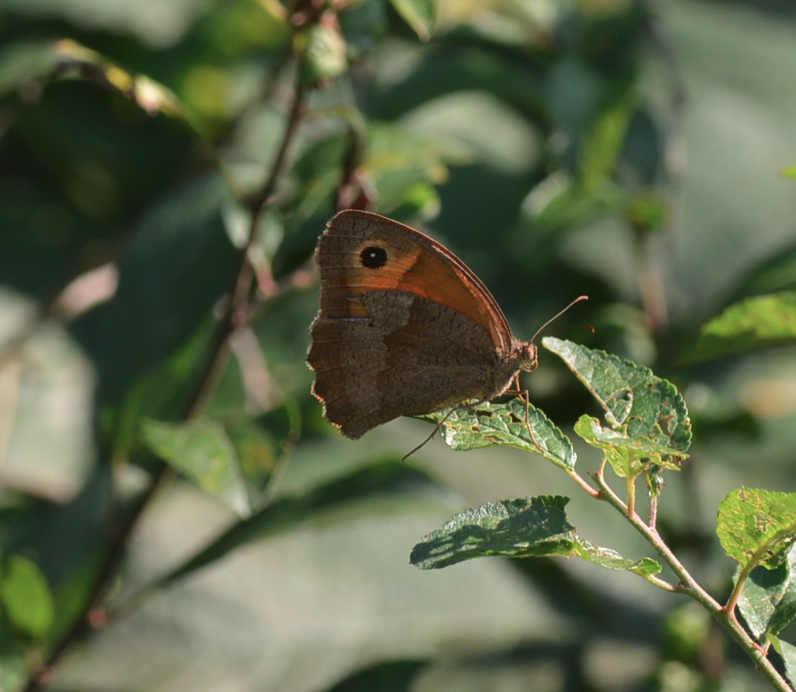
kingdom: Animalia
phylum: Arthropoda
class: Insecta
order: Lepidoptera
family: Nymphalidae
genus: Maniola
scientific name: Maniola jurtina
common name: Meadow brown
